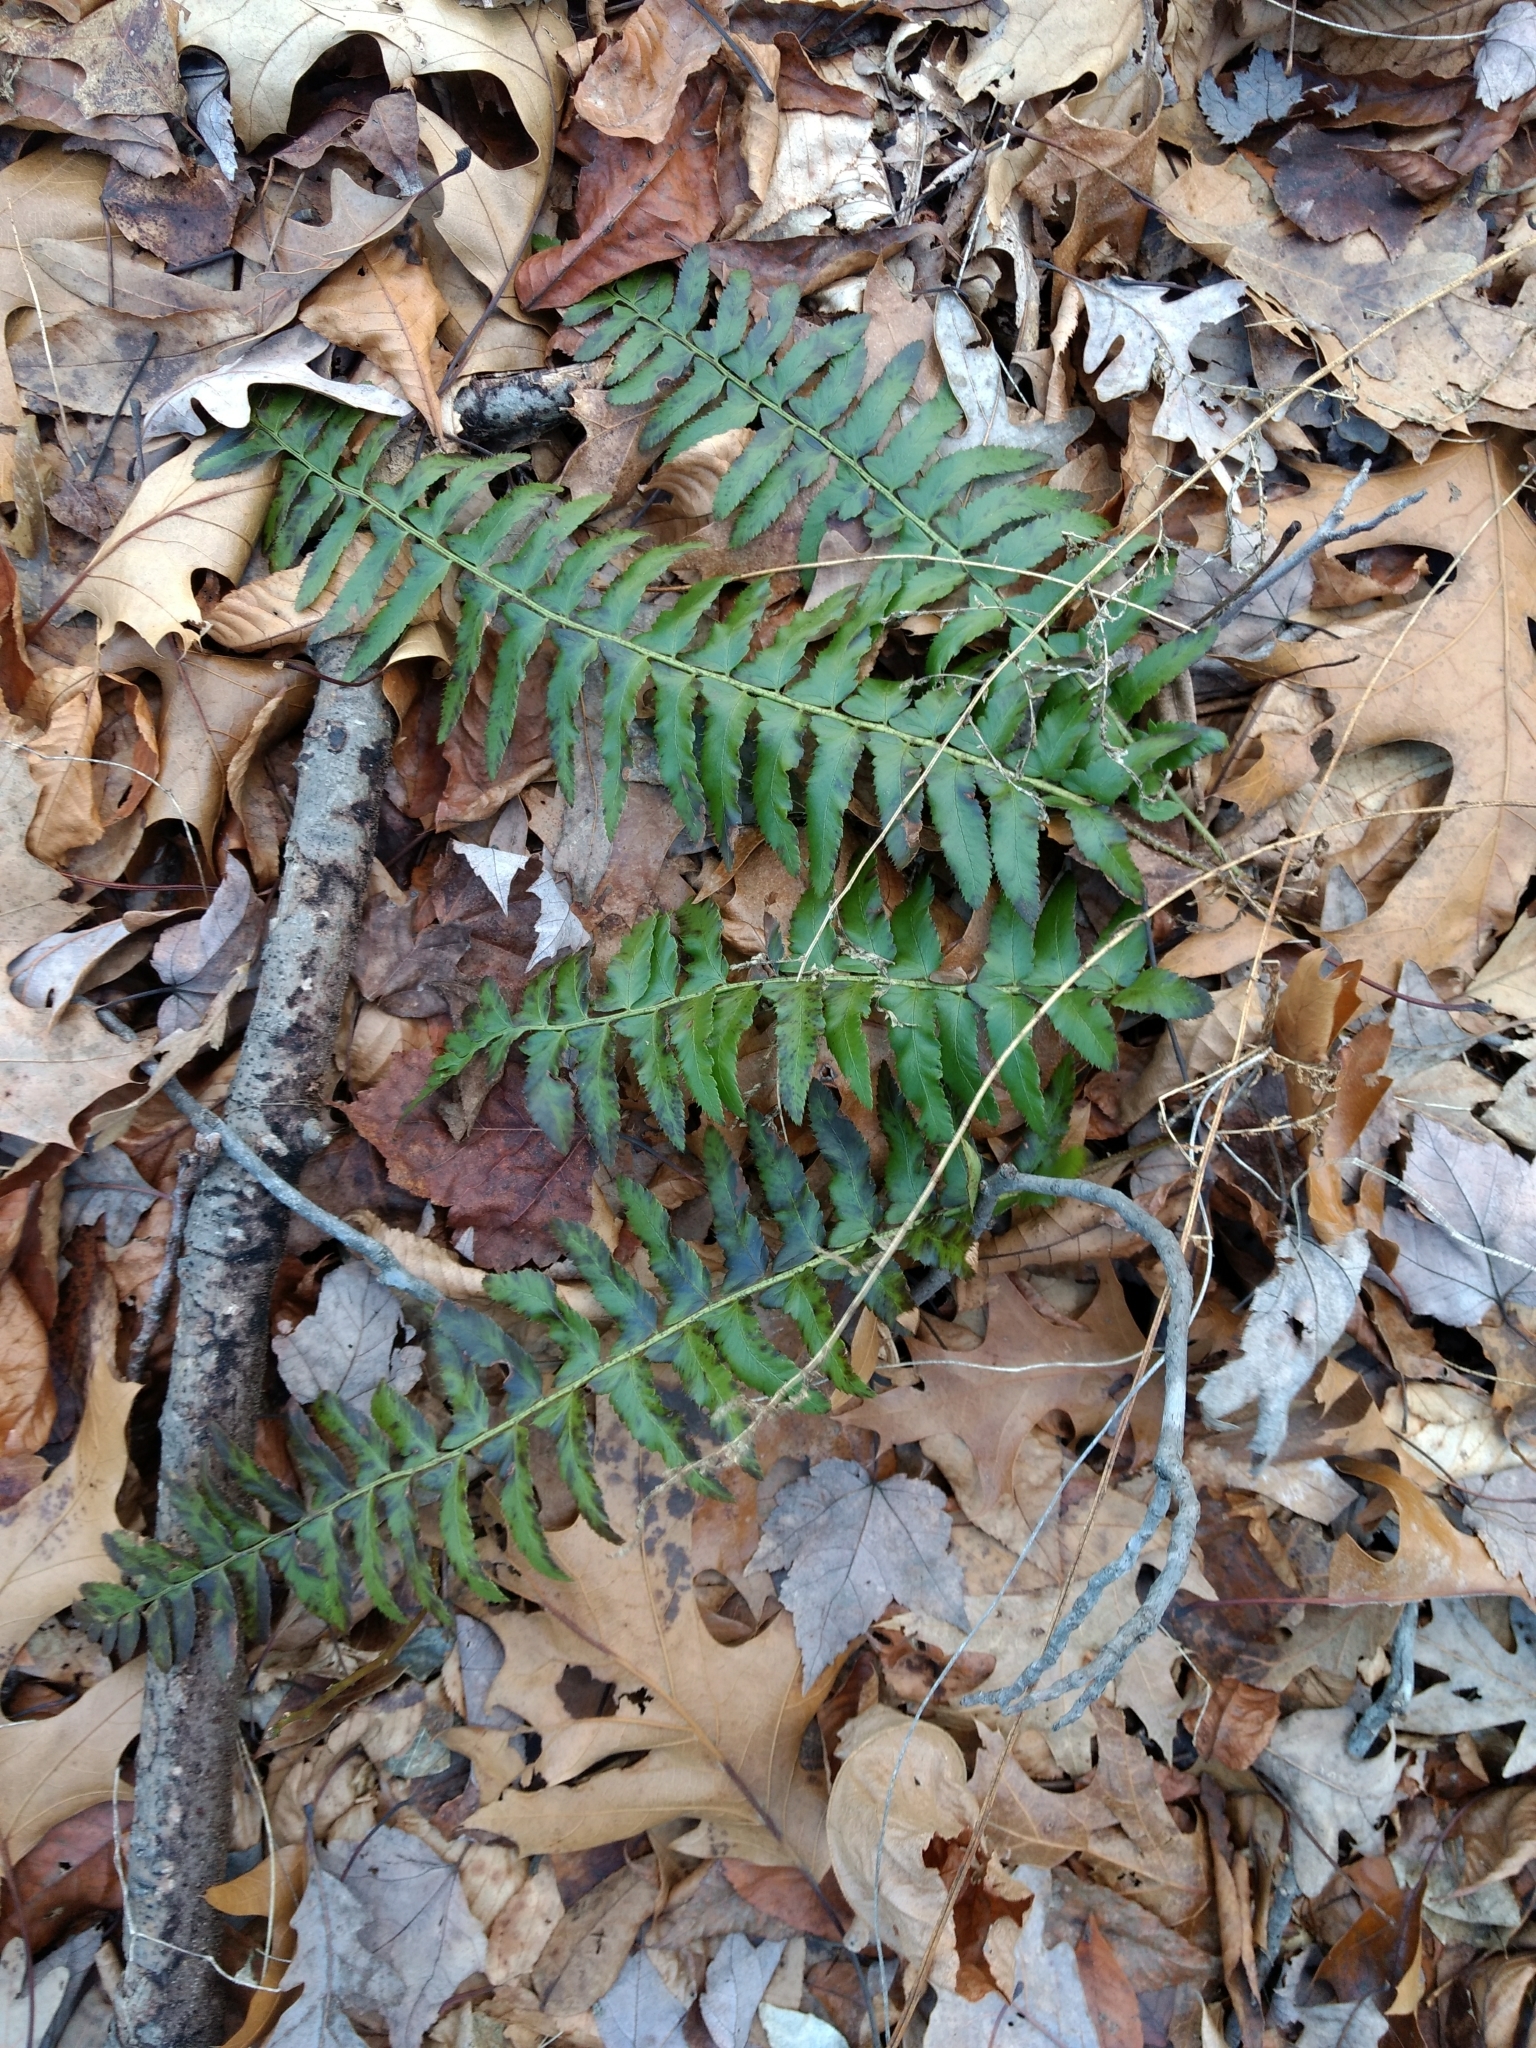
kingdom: Plantae
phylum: Tracheophyta
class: Polypodiopsida
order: Polypodiales
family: Dryopteridaceae
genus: Polystichum
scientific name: Polystichum acrostichoides
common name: Christmas fern
